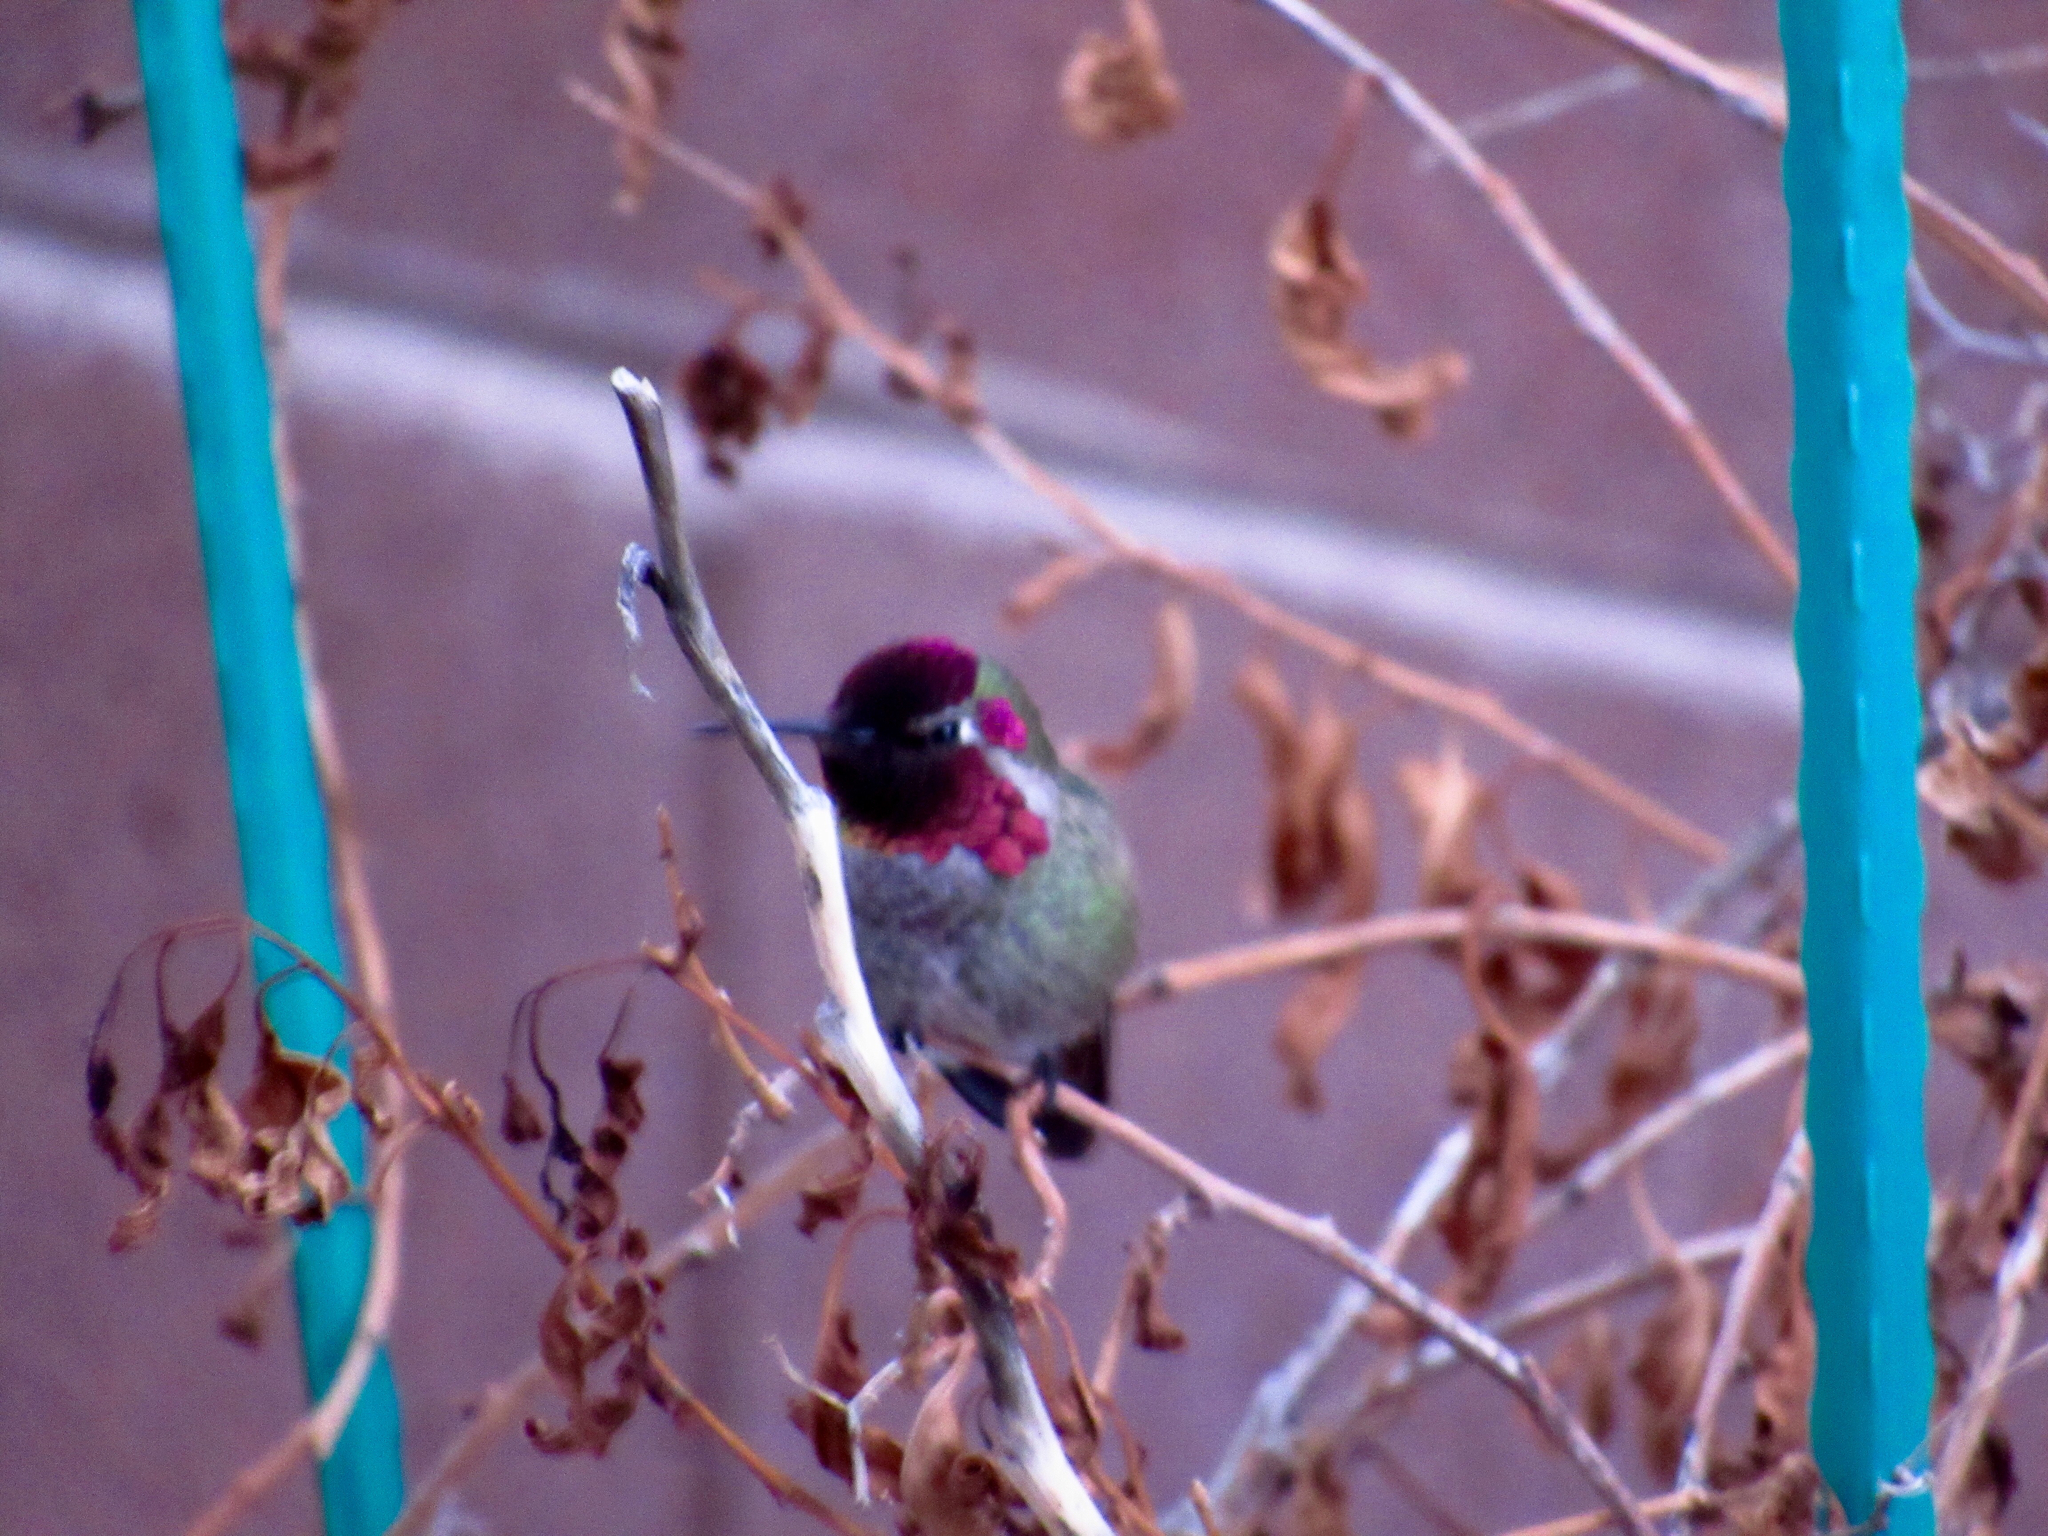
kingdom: Animalia
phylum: Chordata
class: Aves
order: Apodiformes
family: Trochilidae
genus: Calypte
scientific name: Calypte anna
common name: Anna's hummingbird
